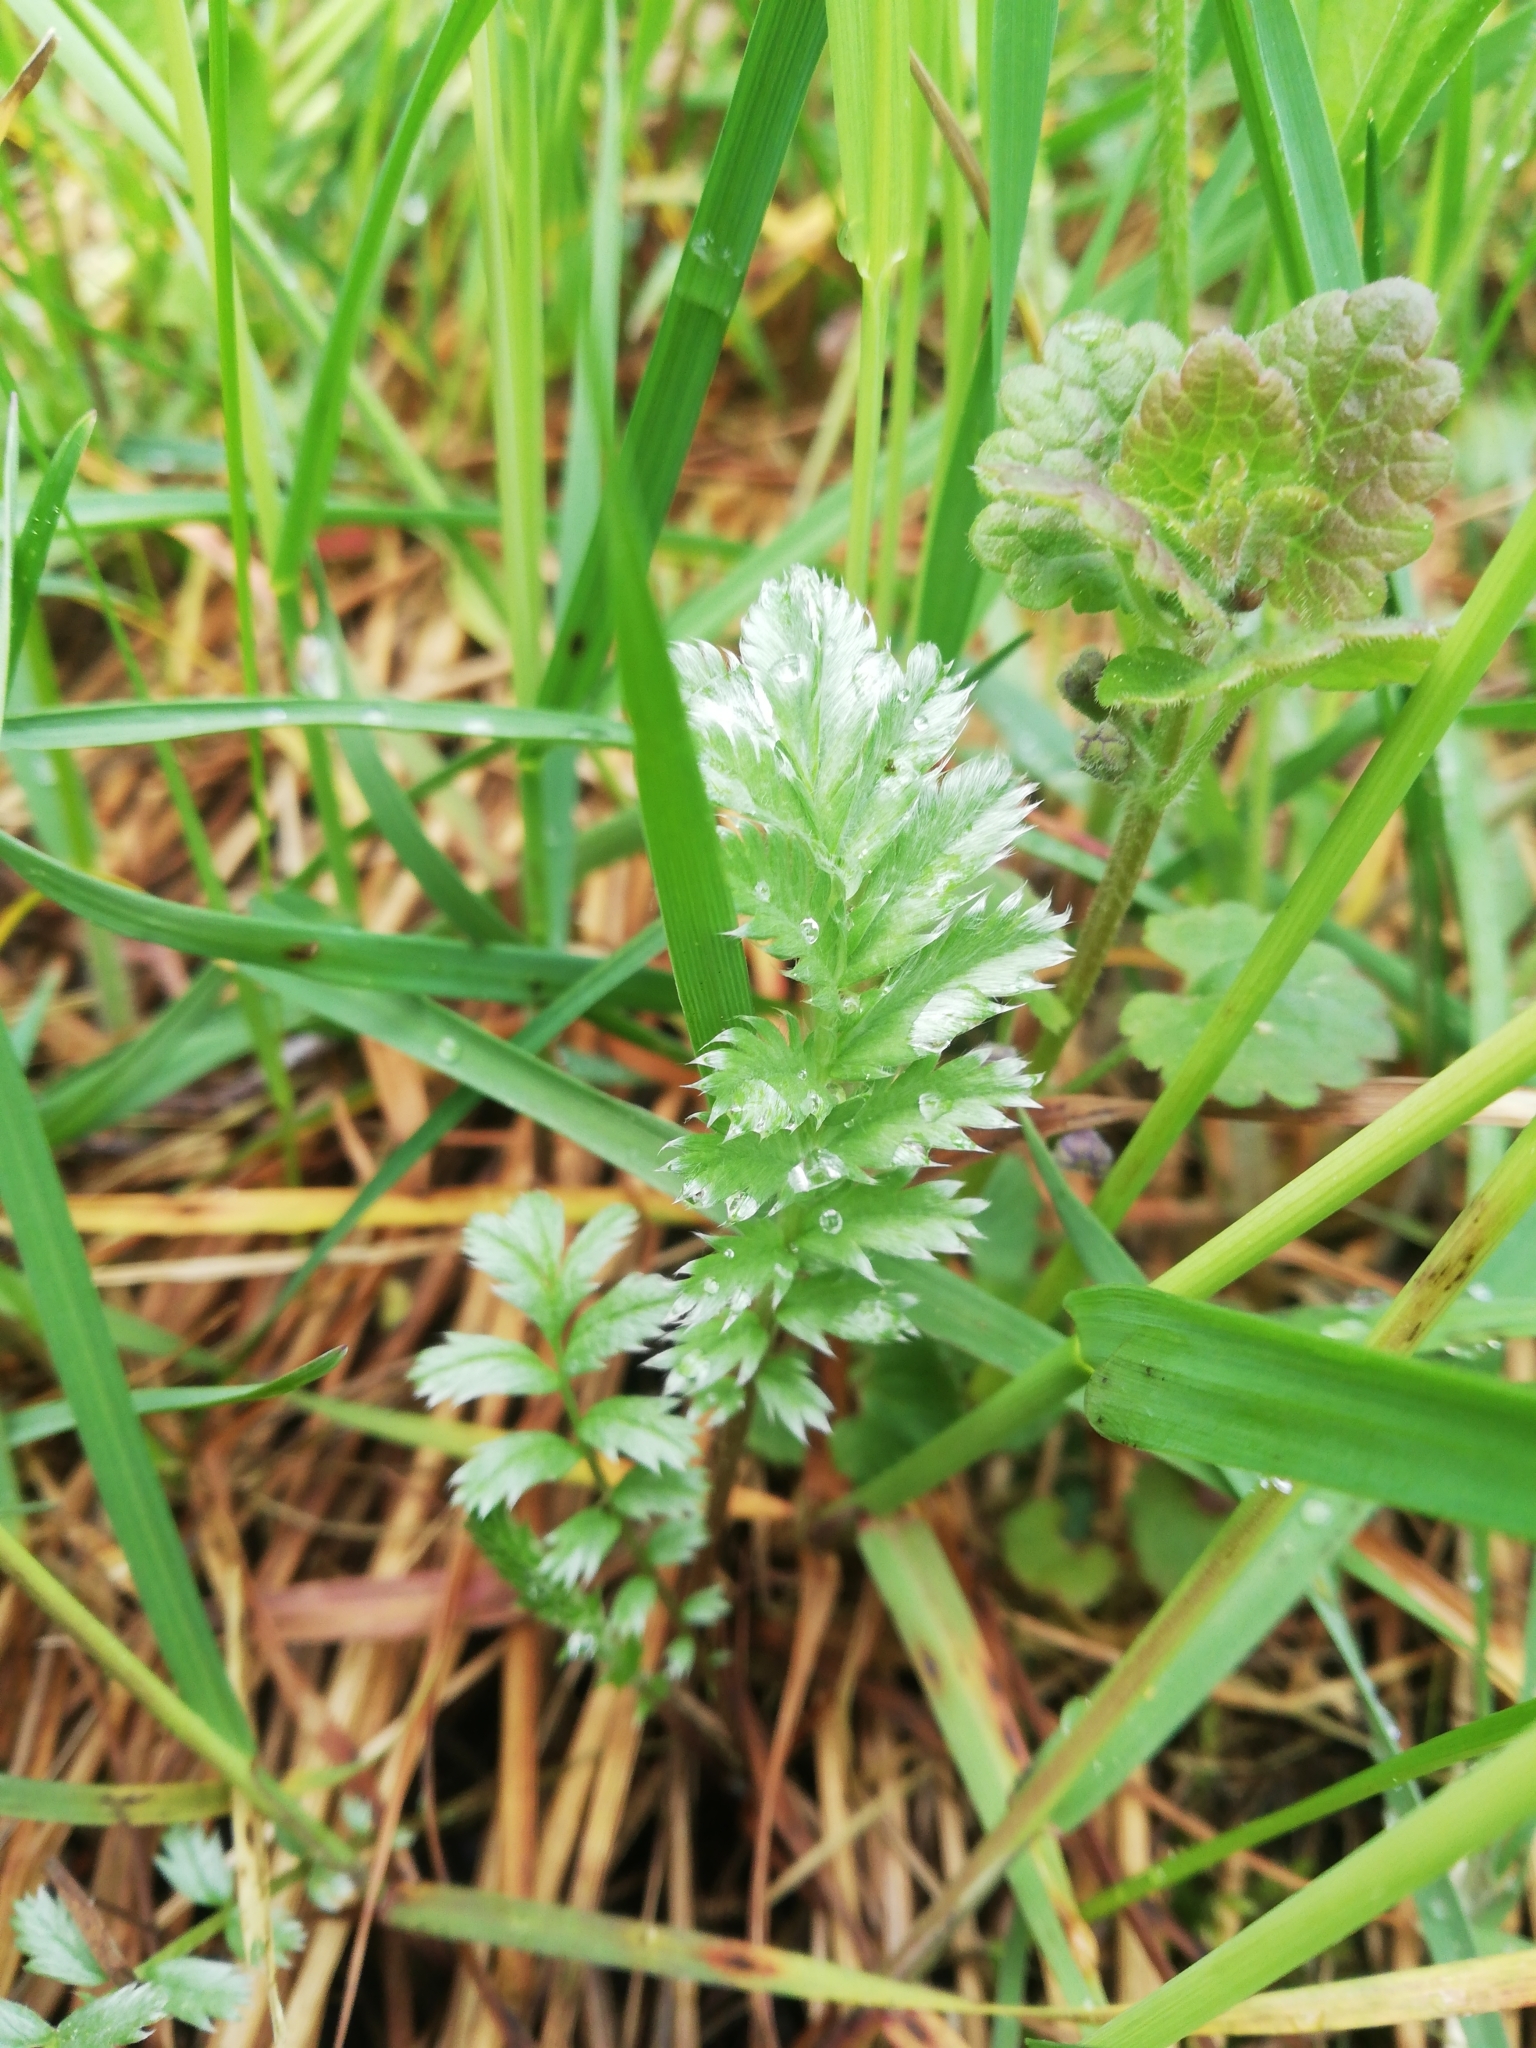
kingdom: Plantae
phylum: Tracheophyta
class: Magnoliopsida
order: Rosales
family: Rosaceae
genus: Argentina
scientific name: Argentina anserina
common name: Common silverweed
